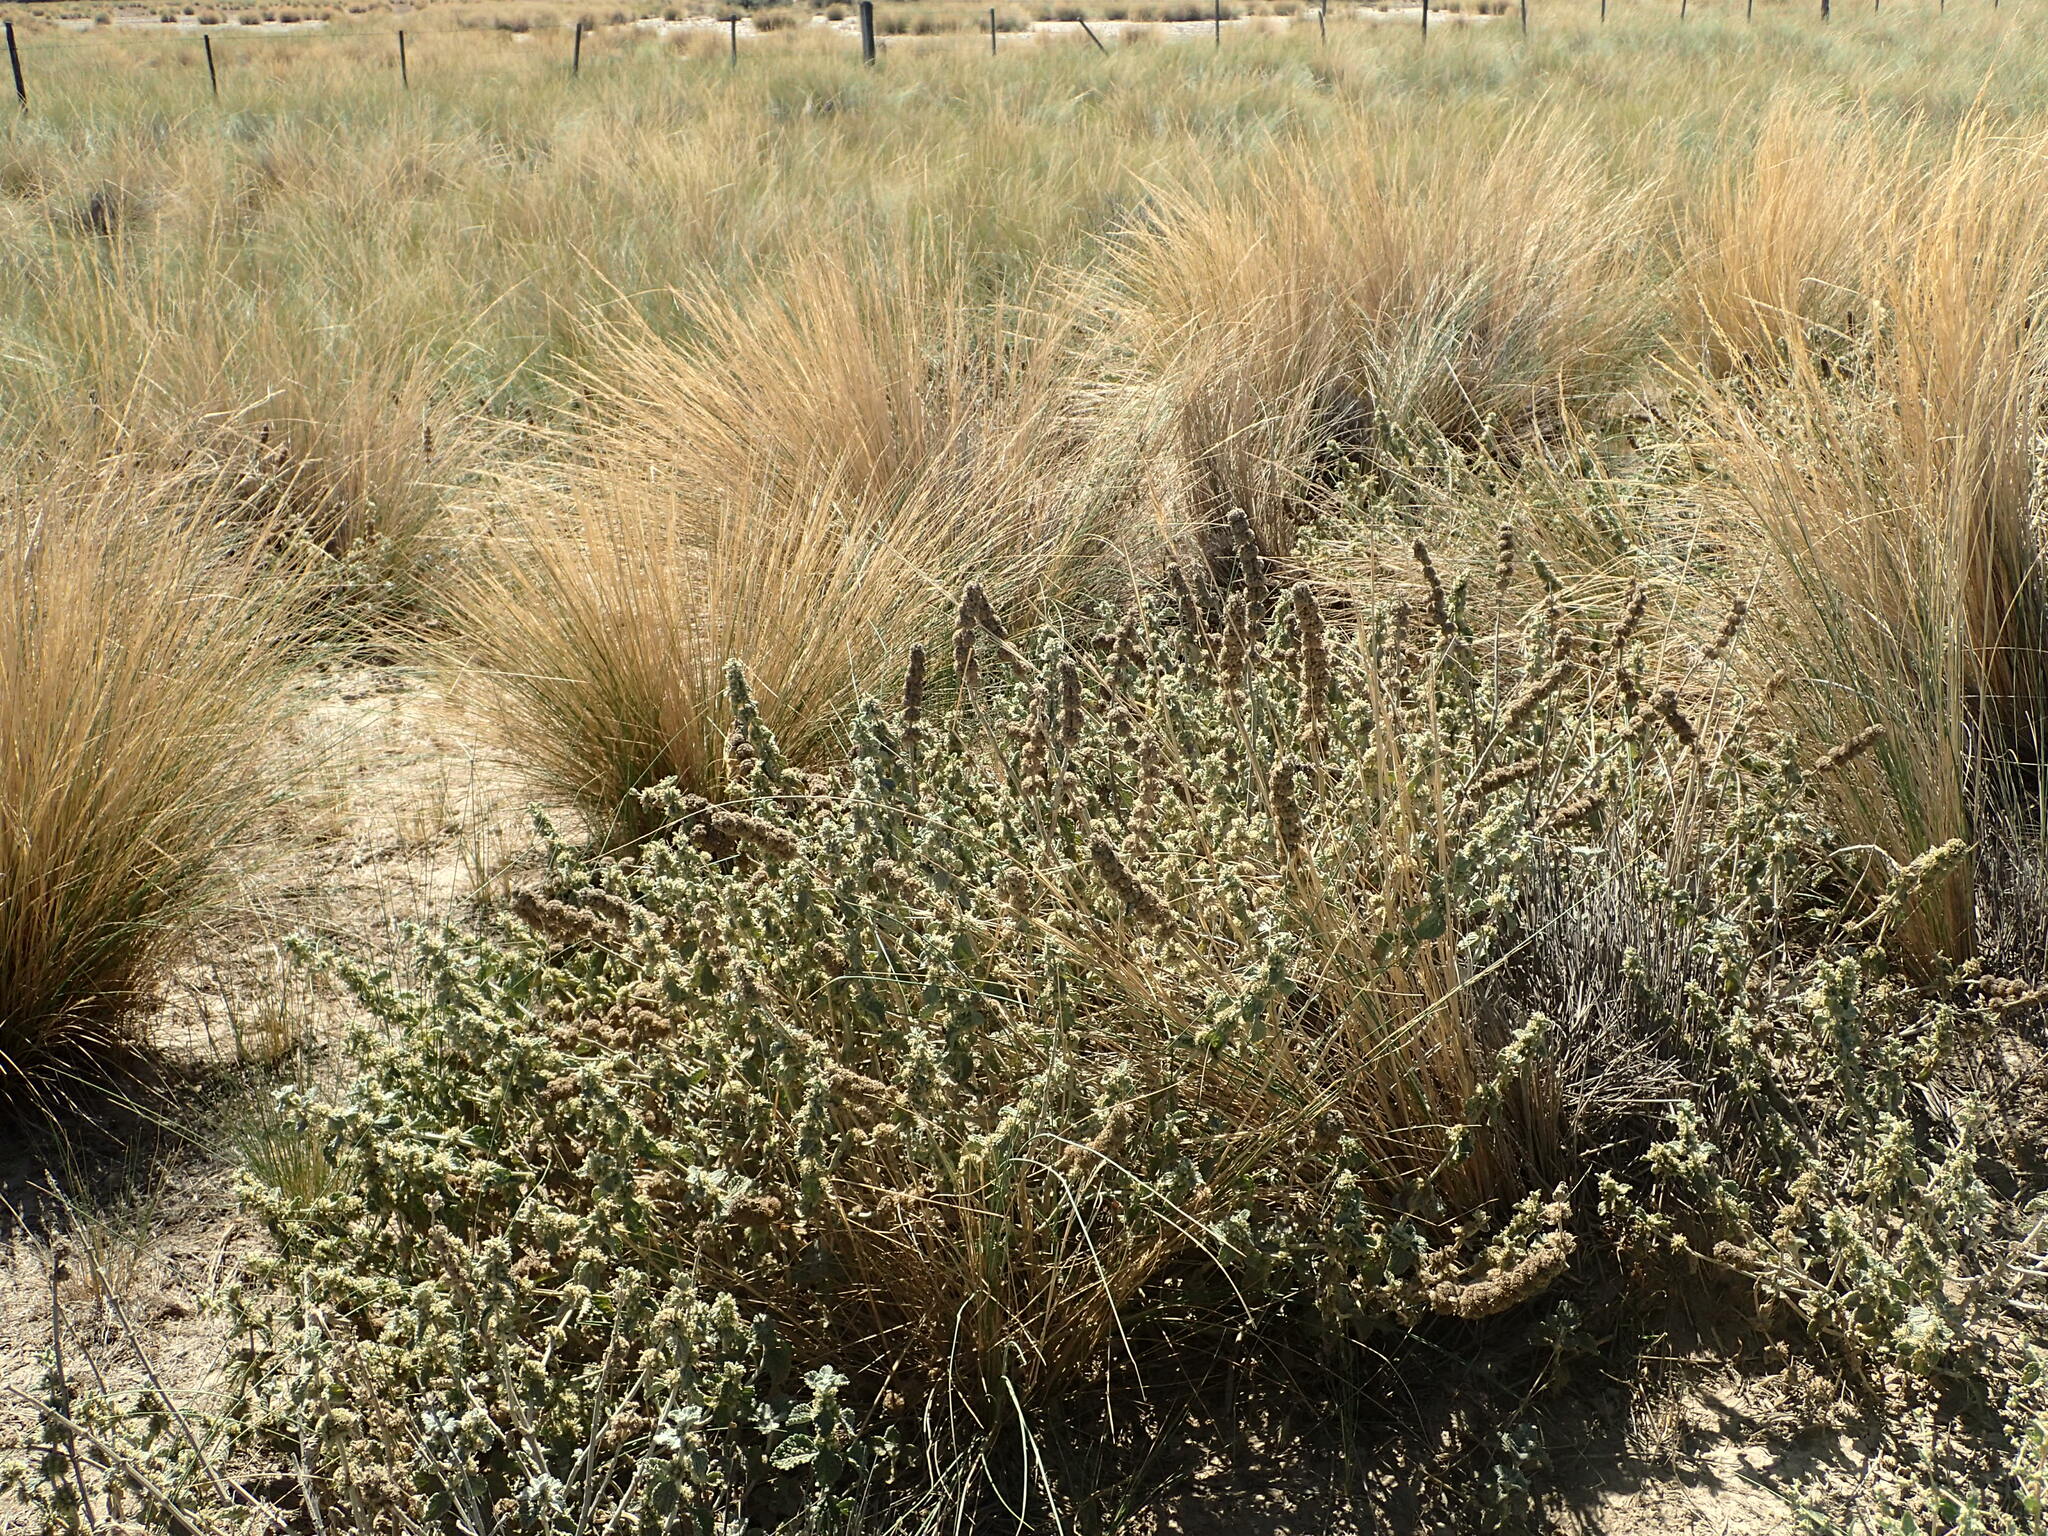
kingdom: Plantae
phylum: Tracheophyta
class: Magnoliopsida
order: Lamiales
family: Lamiaceae
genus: Marrubium
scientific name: Marrubium vulgare
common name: Horehound
